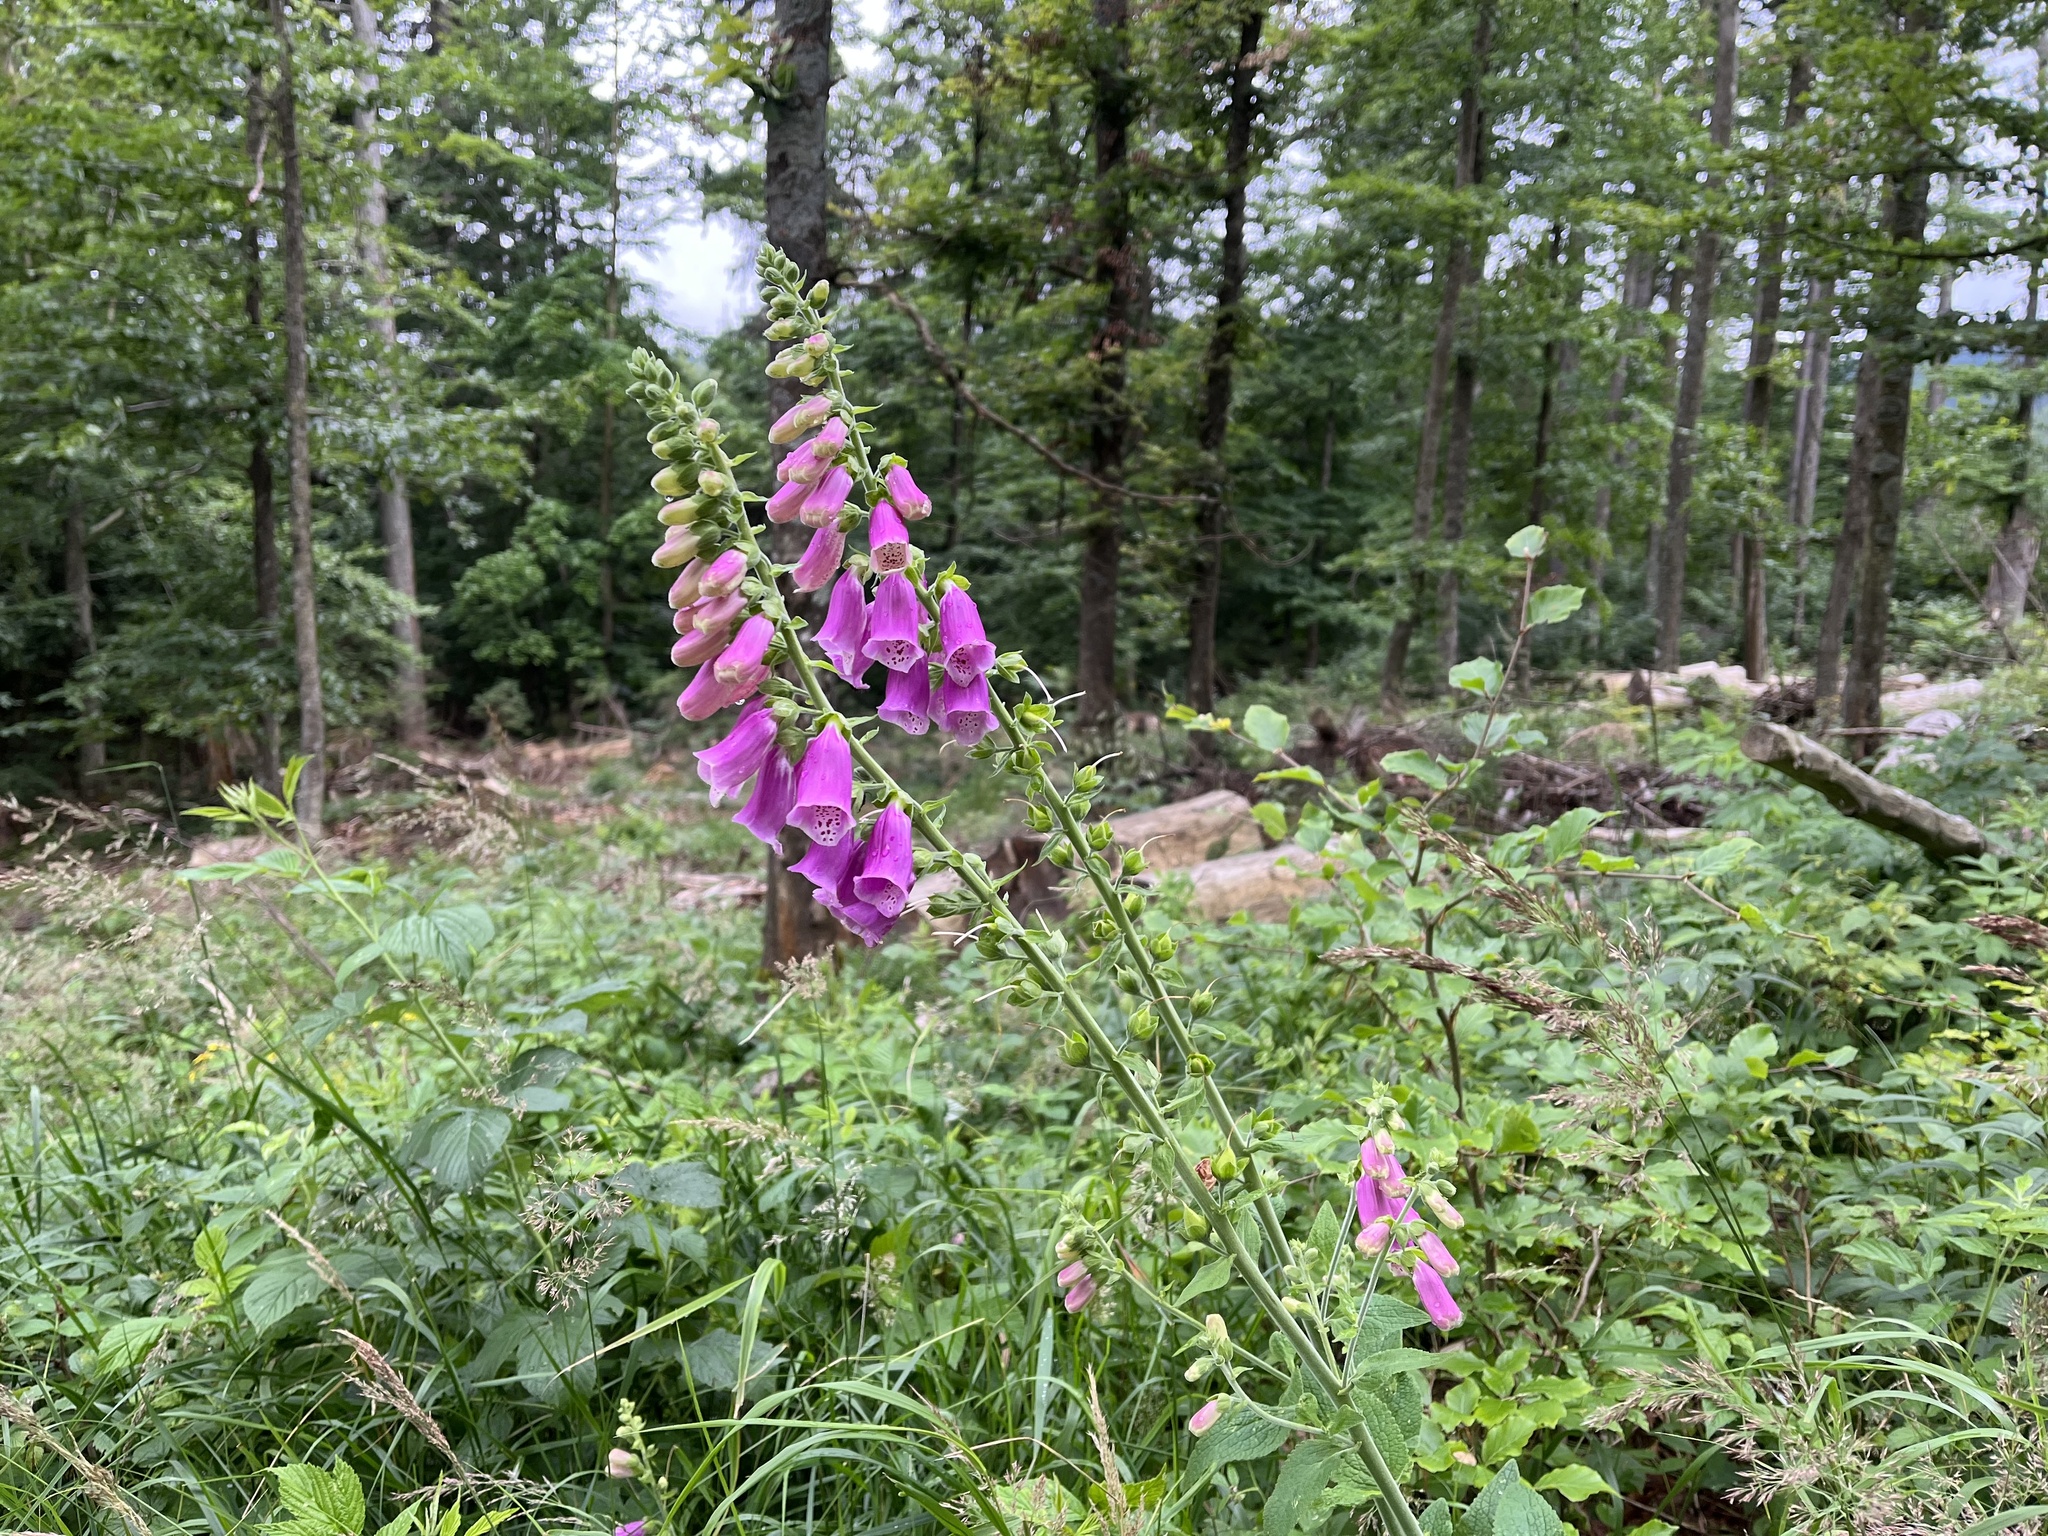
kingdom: Plantae
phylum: Tracheophyta
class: Magnoliopsida
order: Lamiales
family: Plantaginaceae
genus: Digitalis
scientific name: Digitalis purpurea
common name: Foxglove
